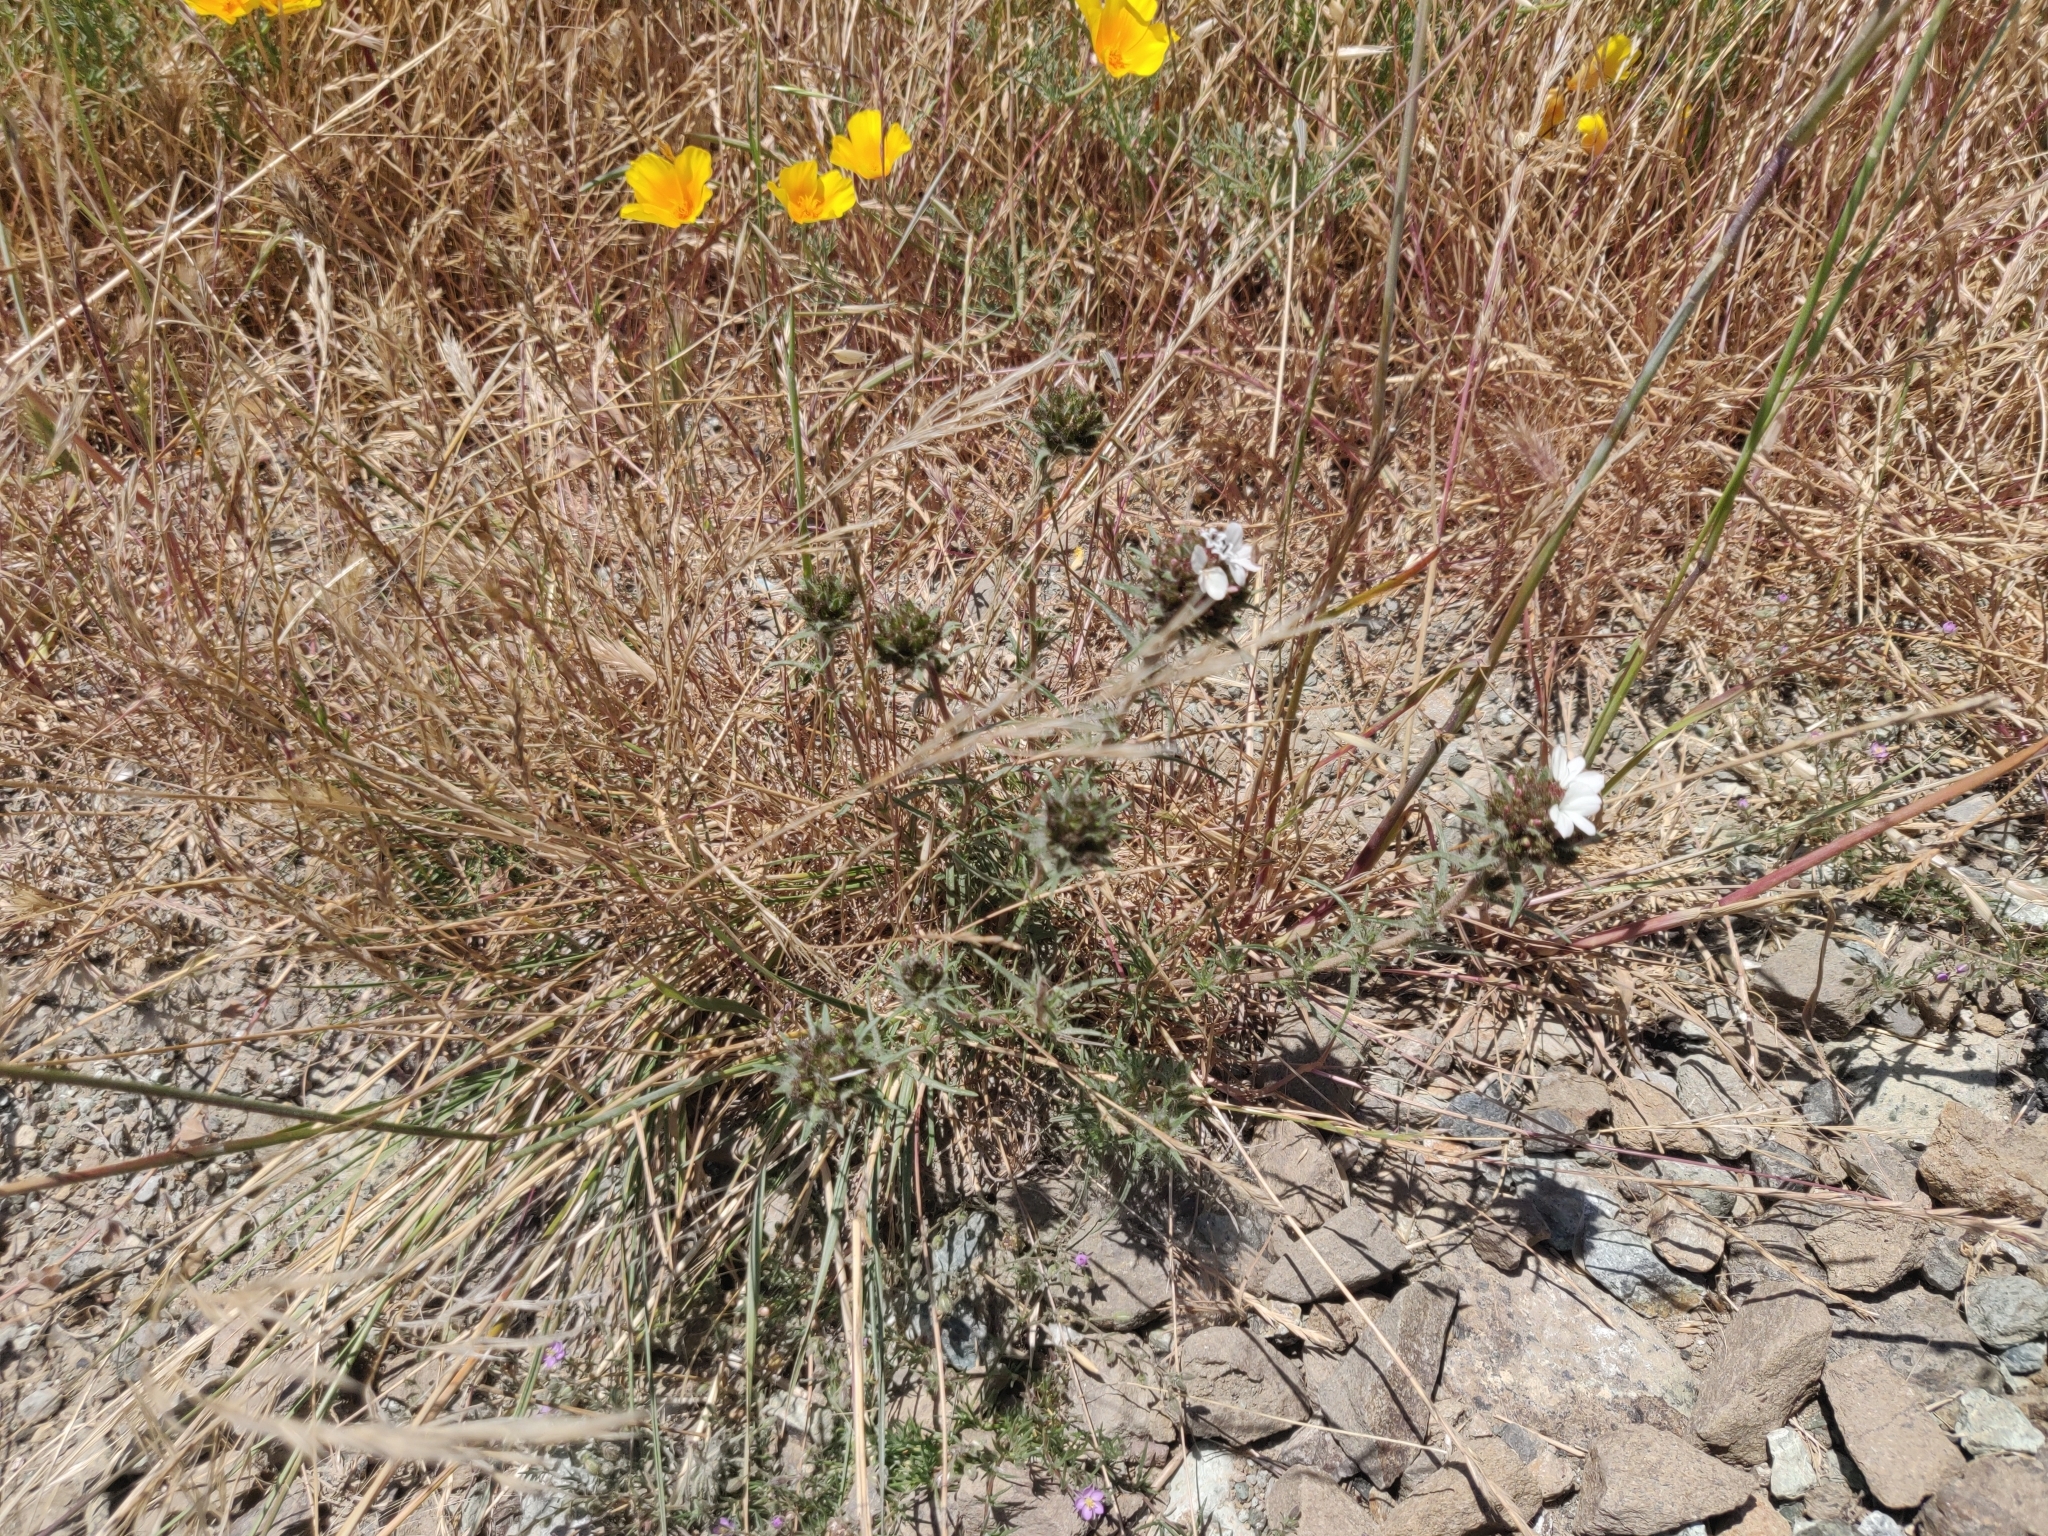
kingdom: Plantae
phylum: Tracheophyta
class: Magnoliopsida
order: Asterales
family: Asteraceae
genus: Calycadenia
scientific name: Calycadenia multiglandulosa
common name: Sticky calycadenia
